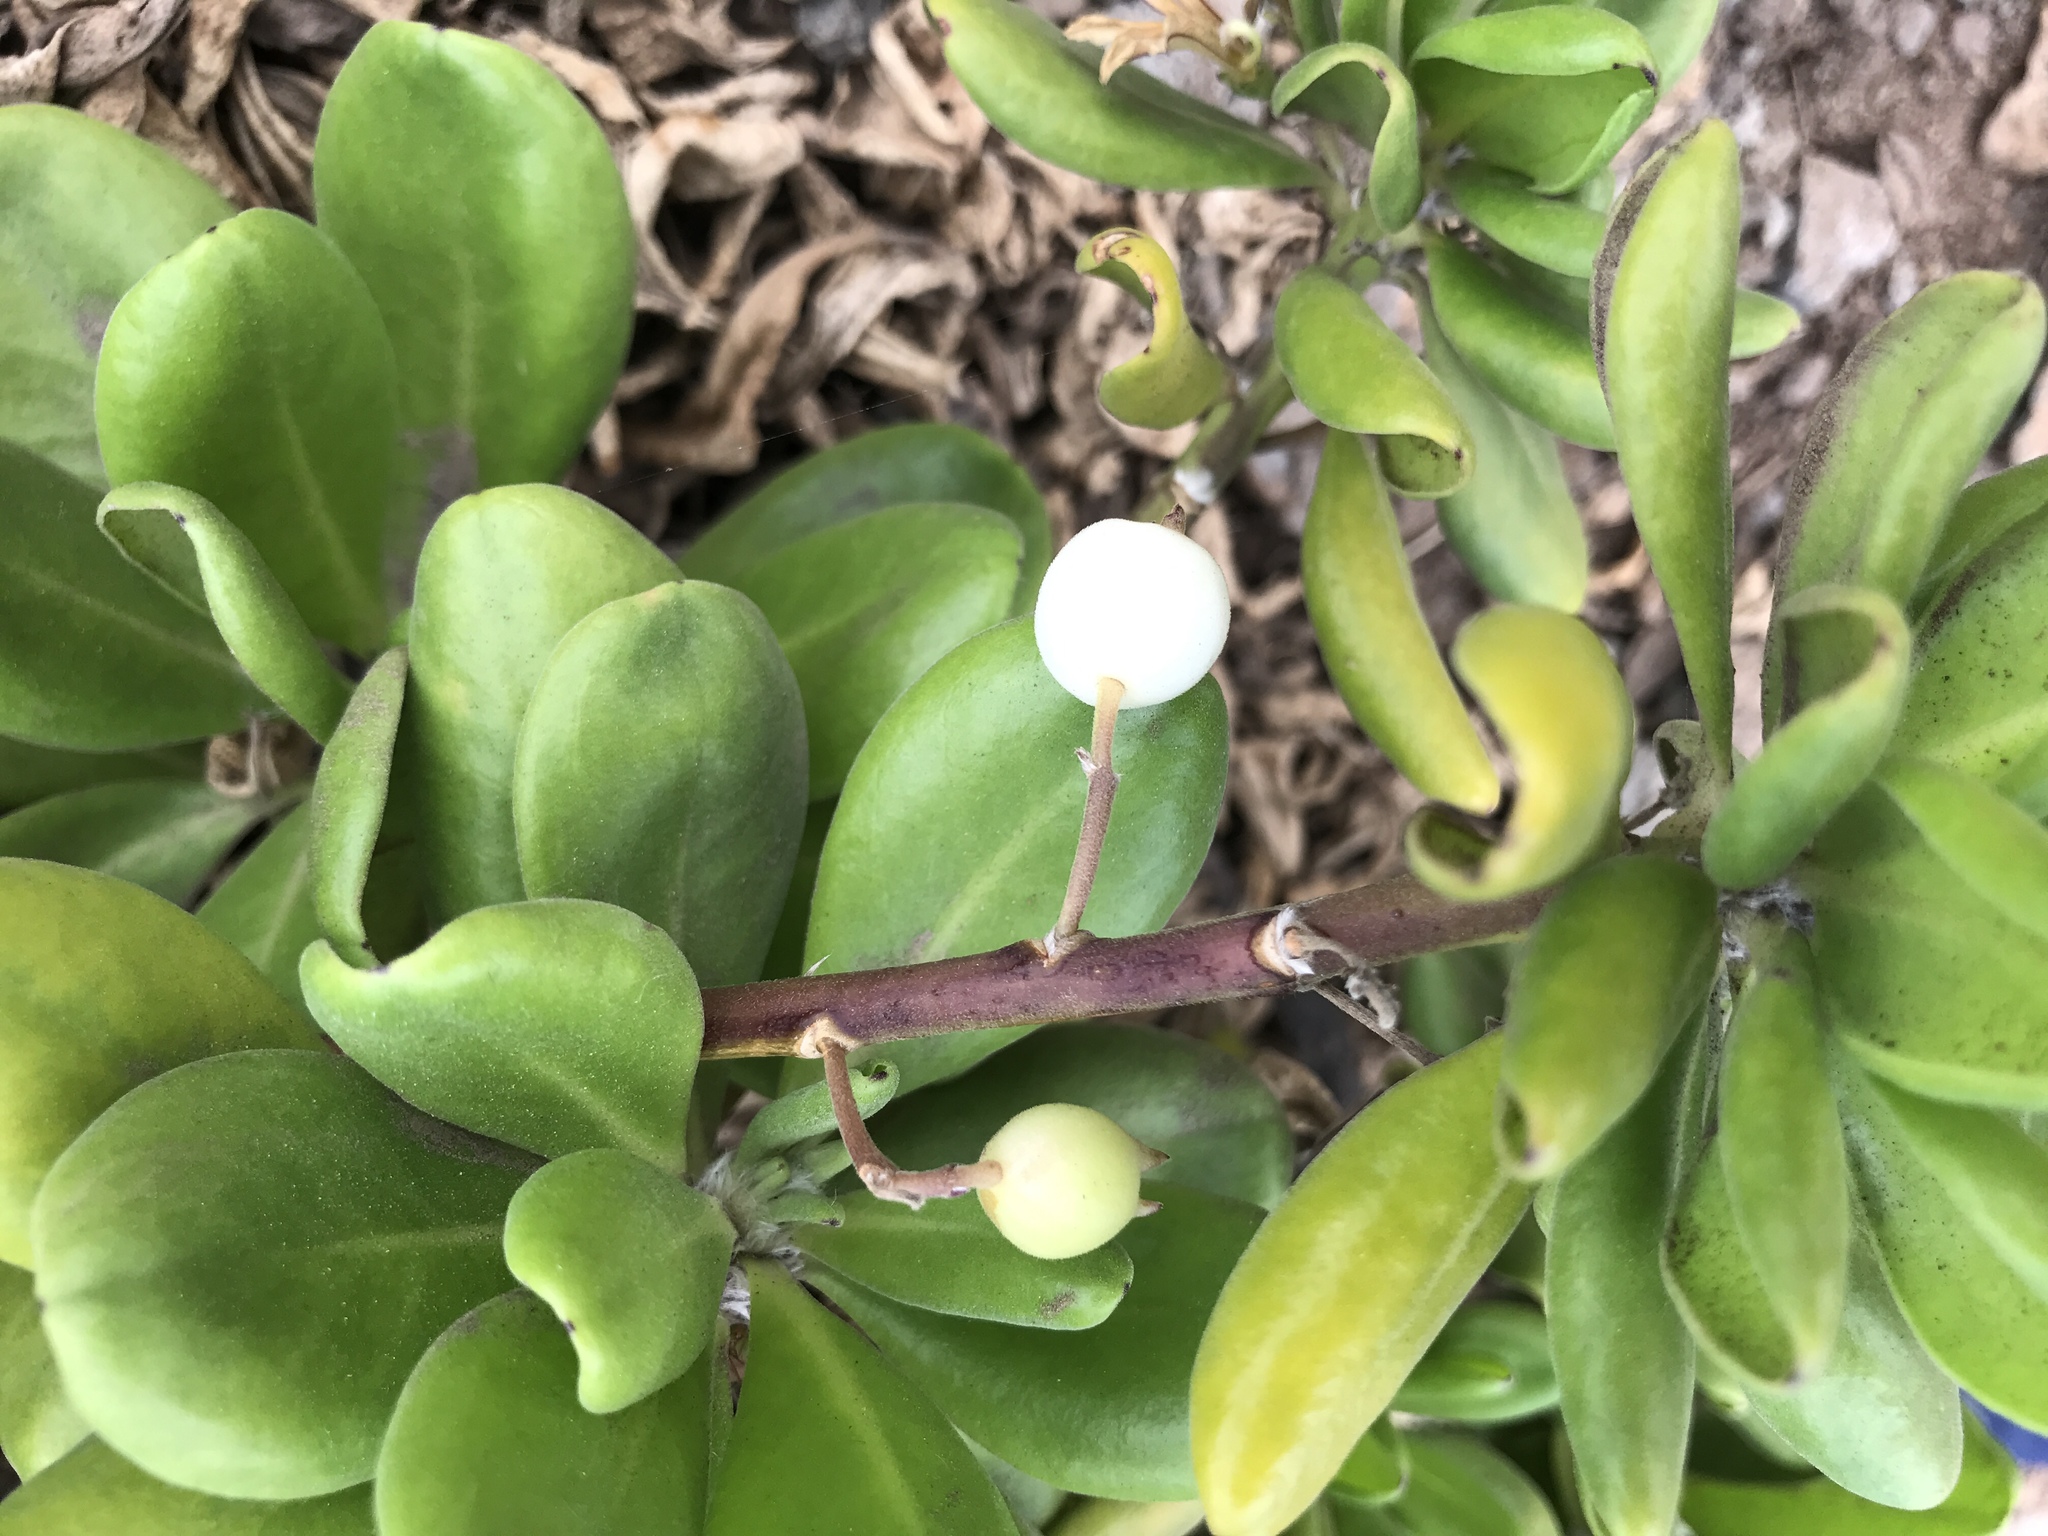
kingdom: Plantae
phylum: Tracheophyta
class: Magnoliopsida
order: Asterales
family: Goodeniaceae
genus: Scaevola
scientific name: Scaevola taccada
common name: Sea lettucetree
